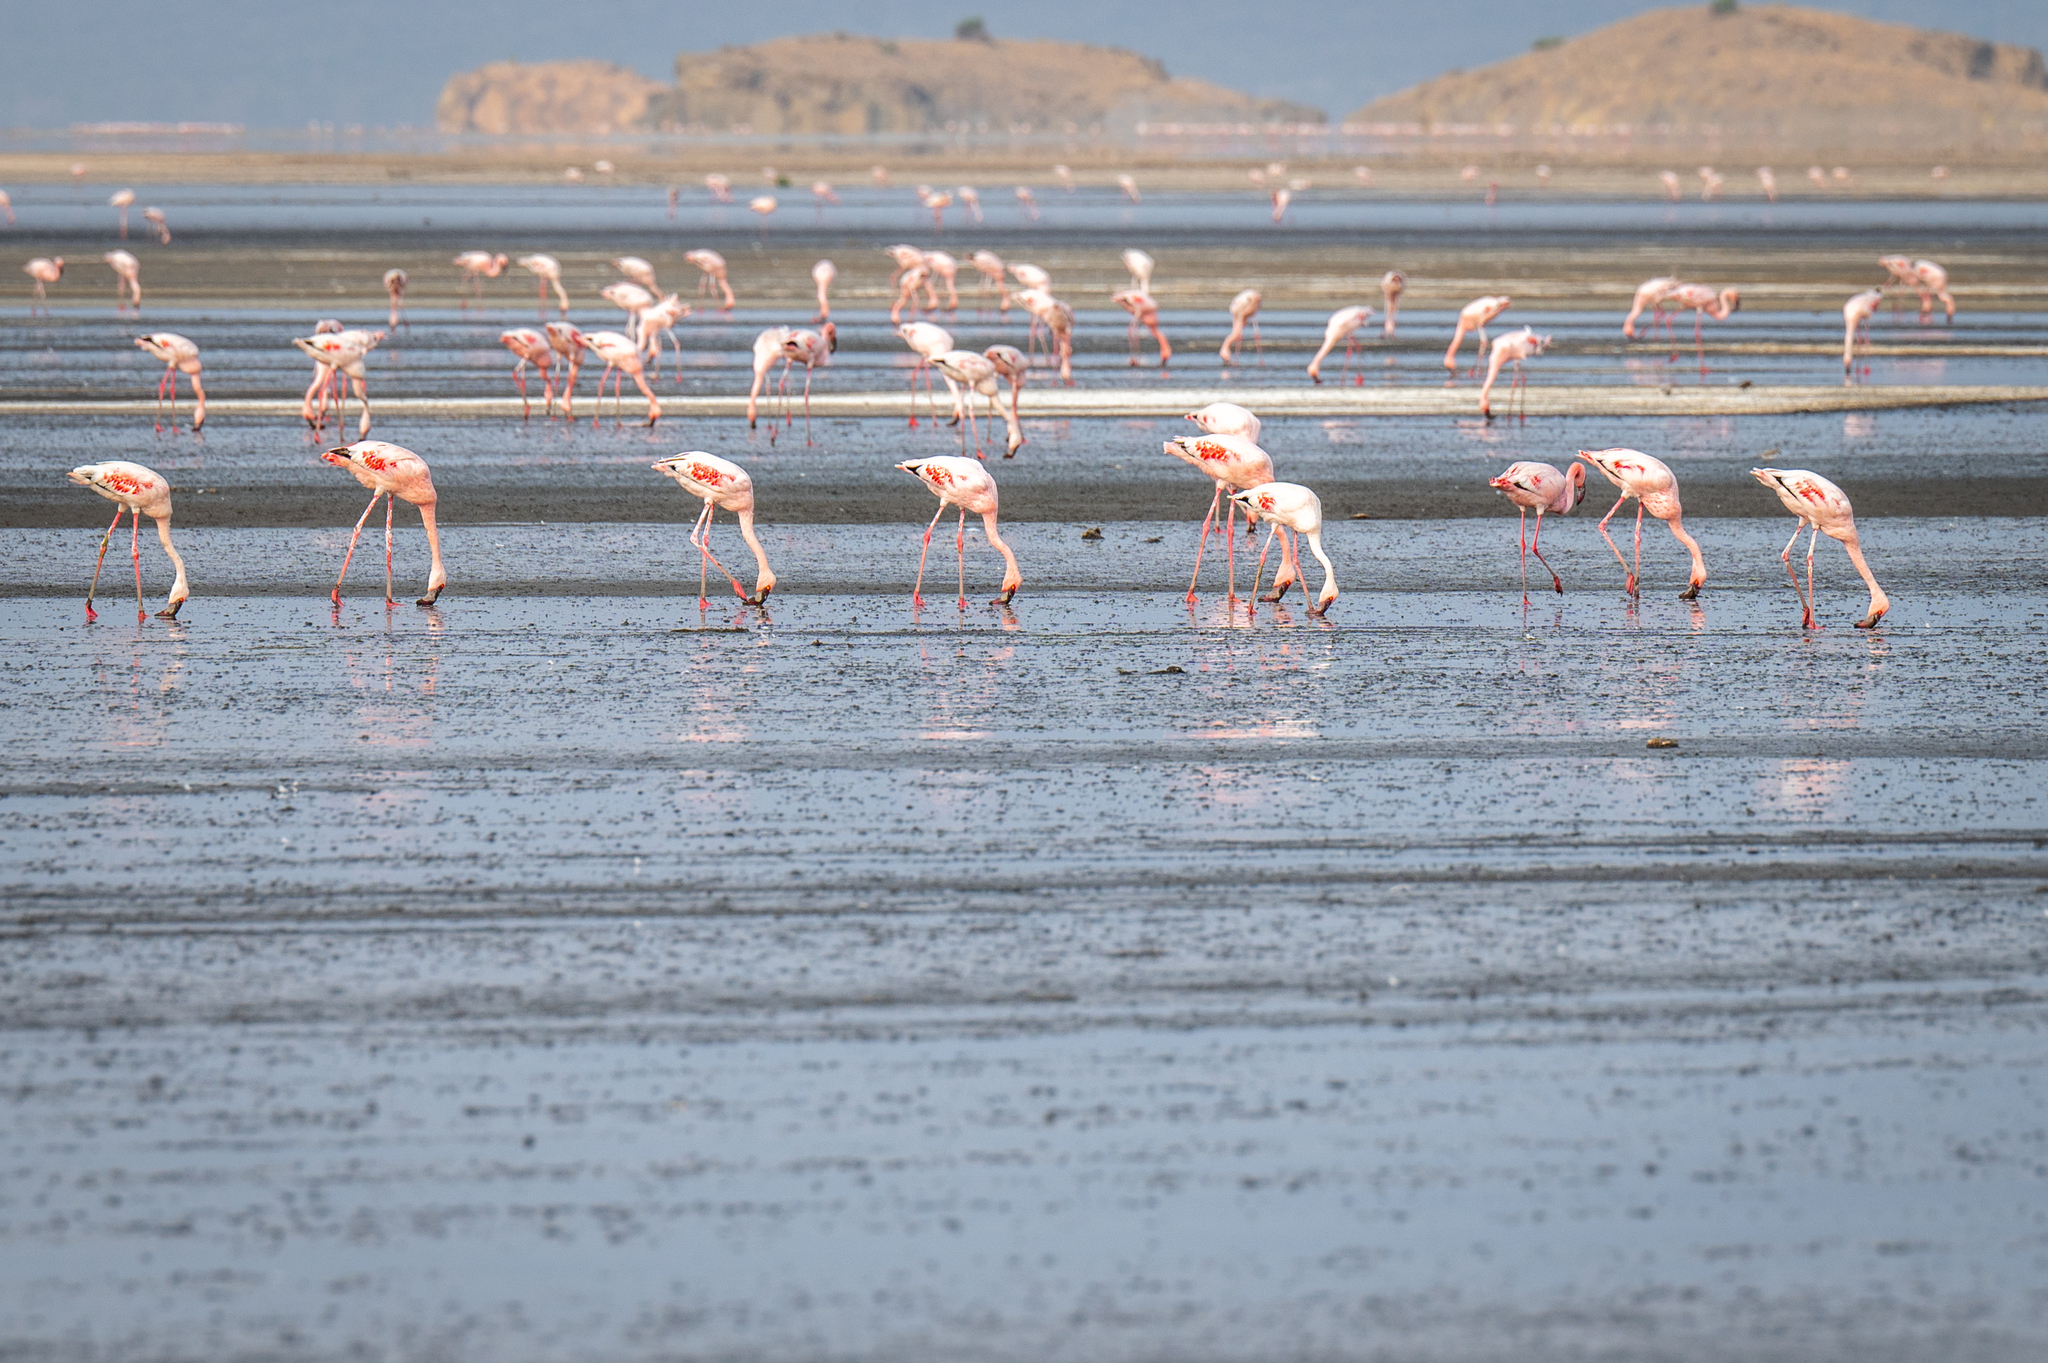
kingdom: Animalia
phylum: Chordata
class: Aves
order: Phoenicopteriformes
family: Phoenicopteridae
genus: Phoeniconaias
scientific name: Phoeniconaias minor
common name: Lesser flamingo
